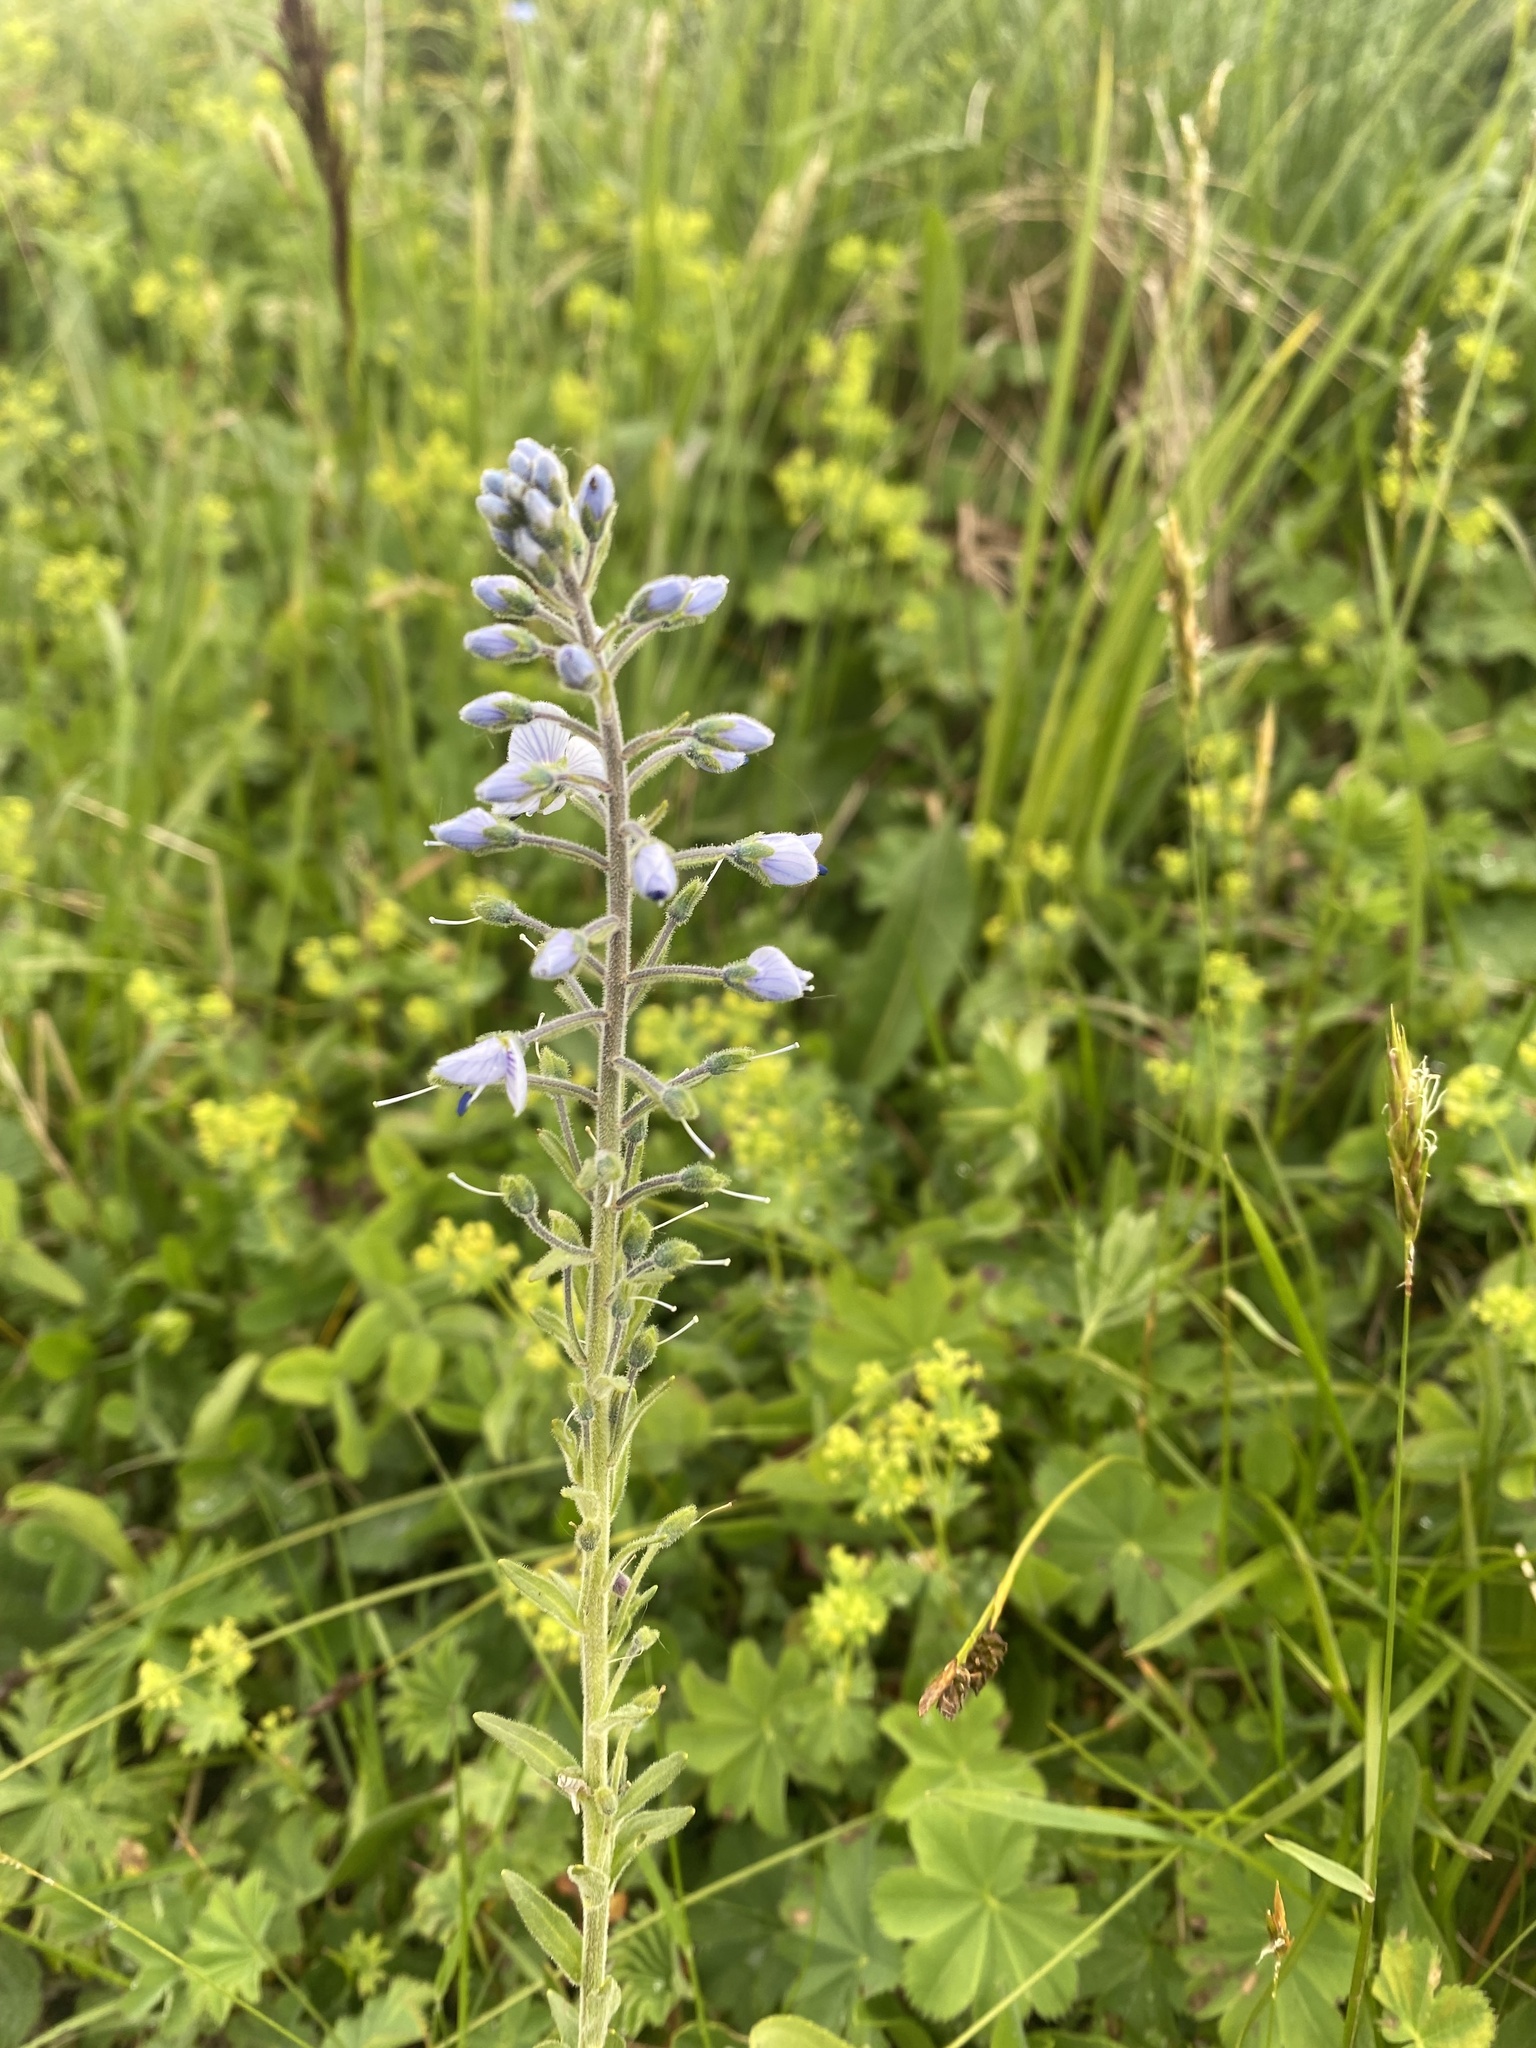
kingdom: Plantae
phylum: Tracheophyta
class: Magnoliopsida
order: Lamiales
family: Plantaginaceae
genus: Veronica
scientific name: Veronica gentianoides
